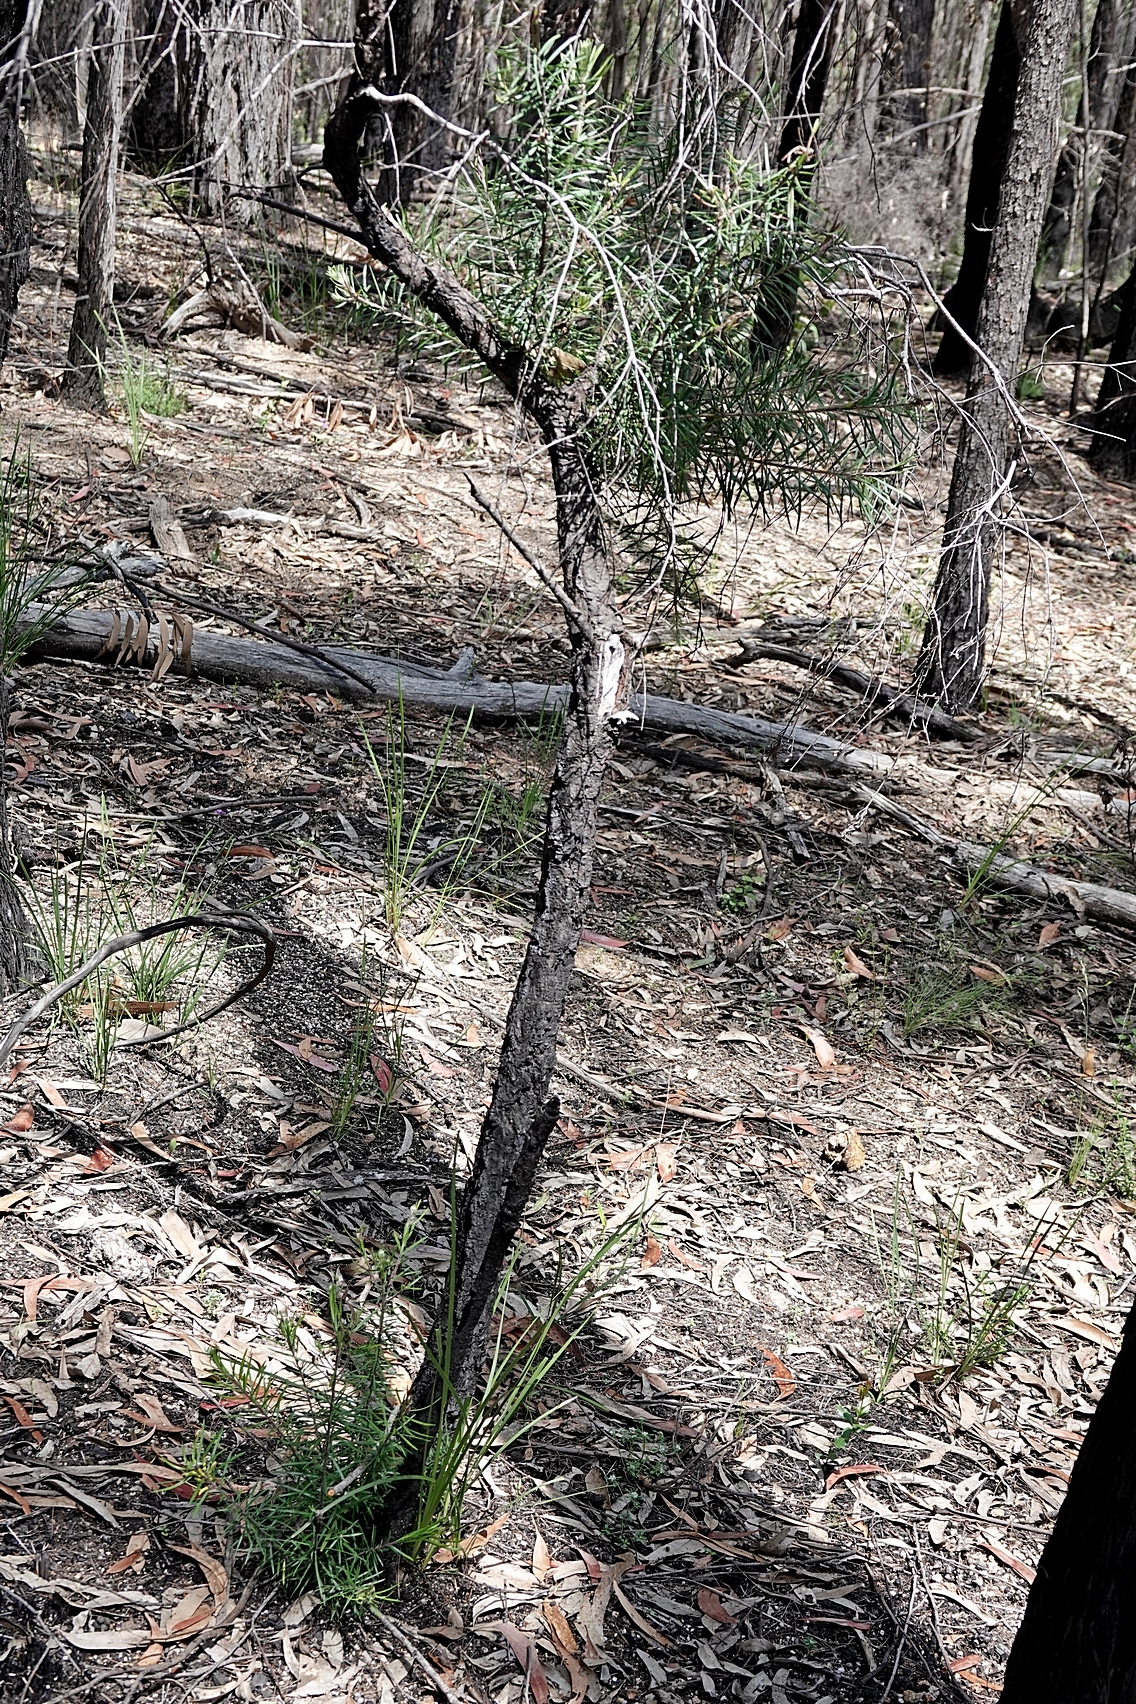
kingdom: Plantae
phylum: Tracheophyta
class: Magnoliopsida
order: Proteales
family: Proteaceae
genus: Persoonia
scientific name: Persoonia linearis
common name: Narrow-leaf geebung
